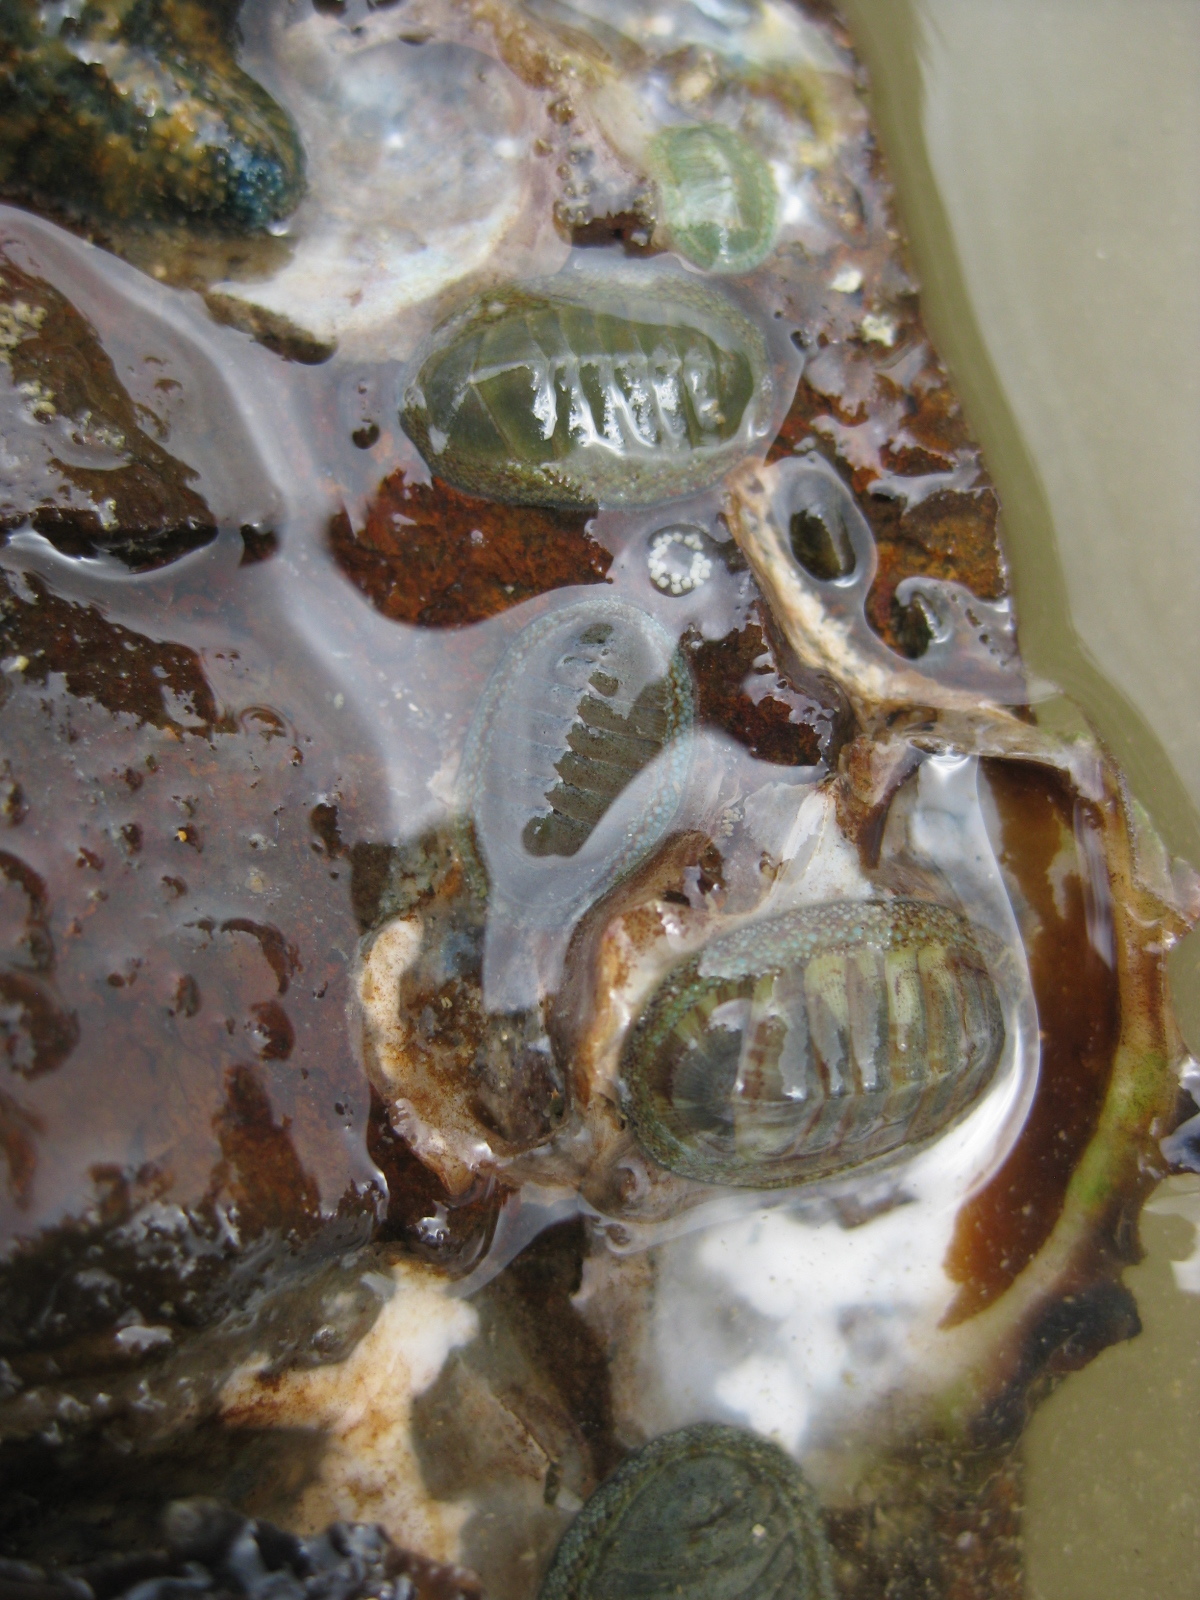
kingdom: Animalia
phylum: Mollusca
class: Polyplacophora
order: Chitonida
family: Chitonidae
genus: Chiton
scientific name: Chiton glaucus
